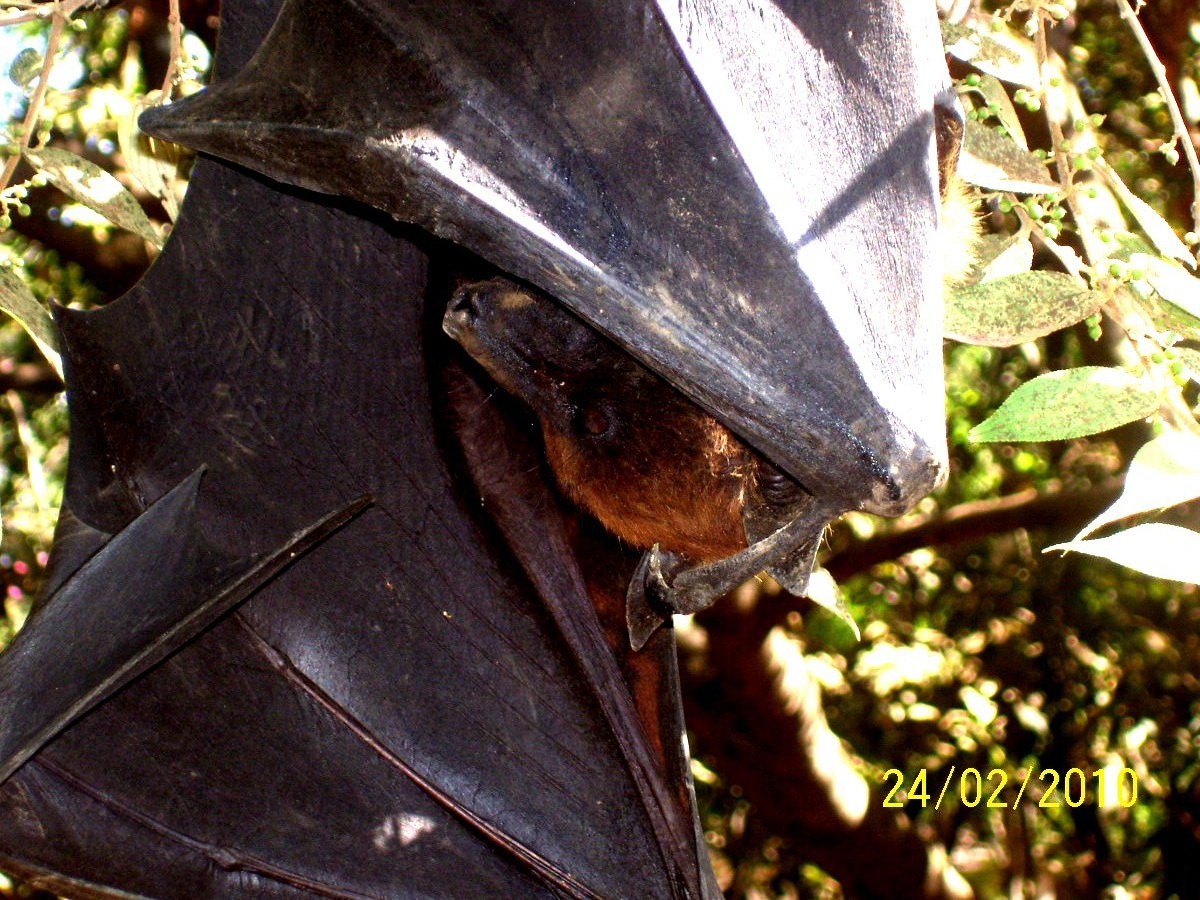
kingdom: Animalia
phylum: Chordata
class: Mammalia
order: Chiroptera
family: Pteropodidae
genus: Pteropus
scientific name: Pteropus vampyrus
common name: Large flying fox
